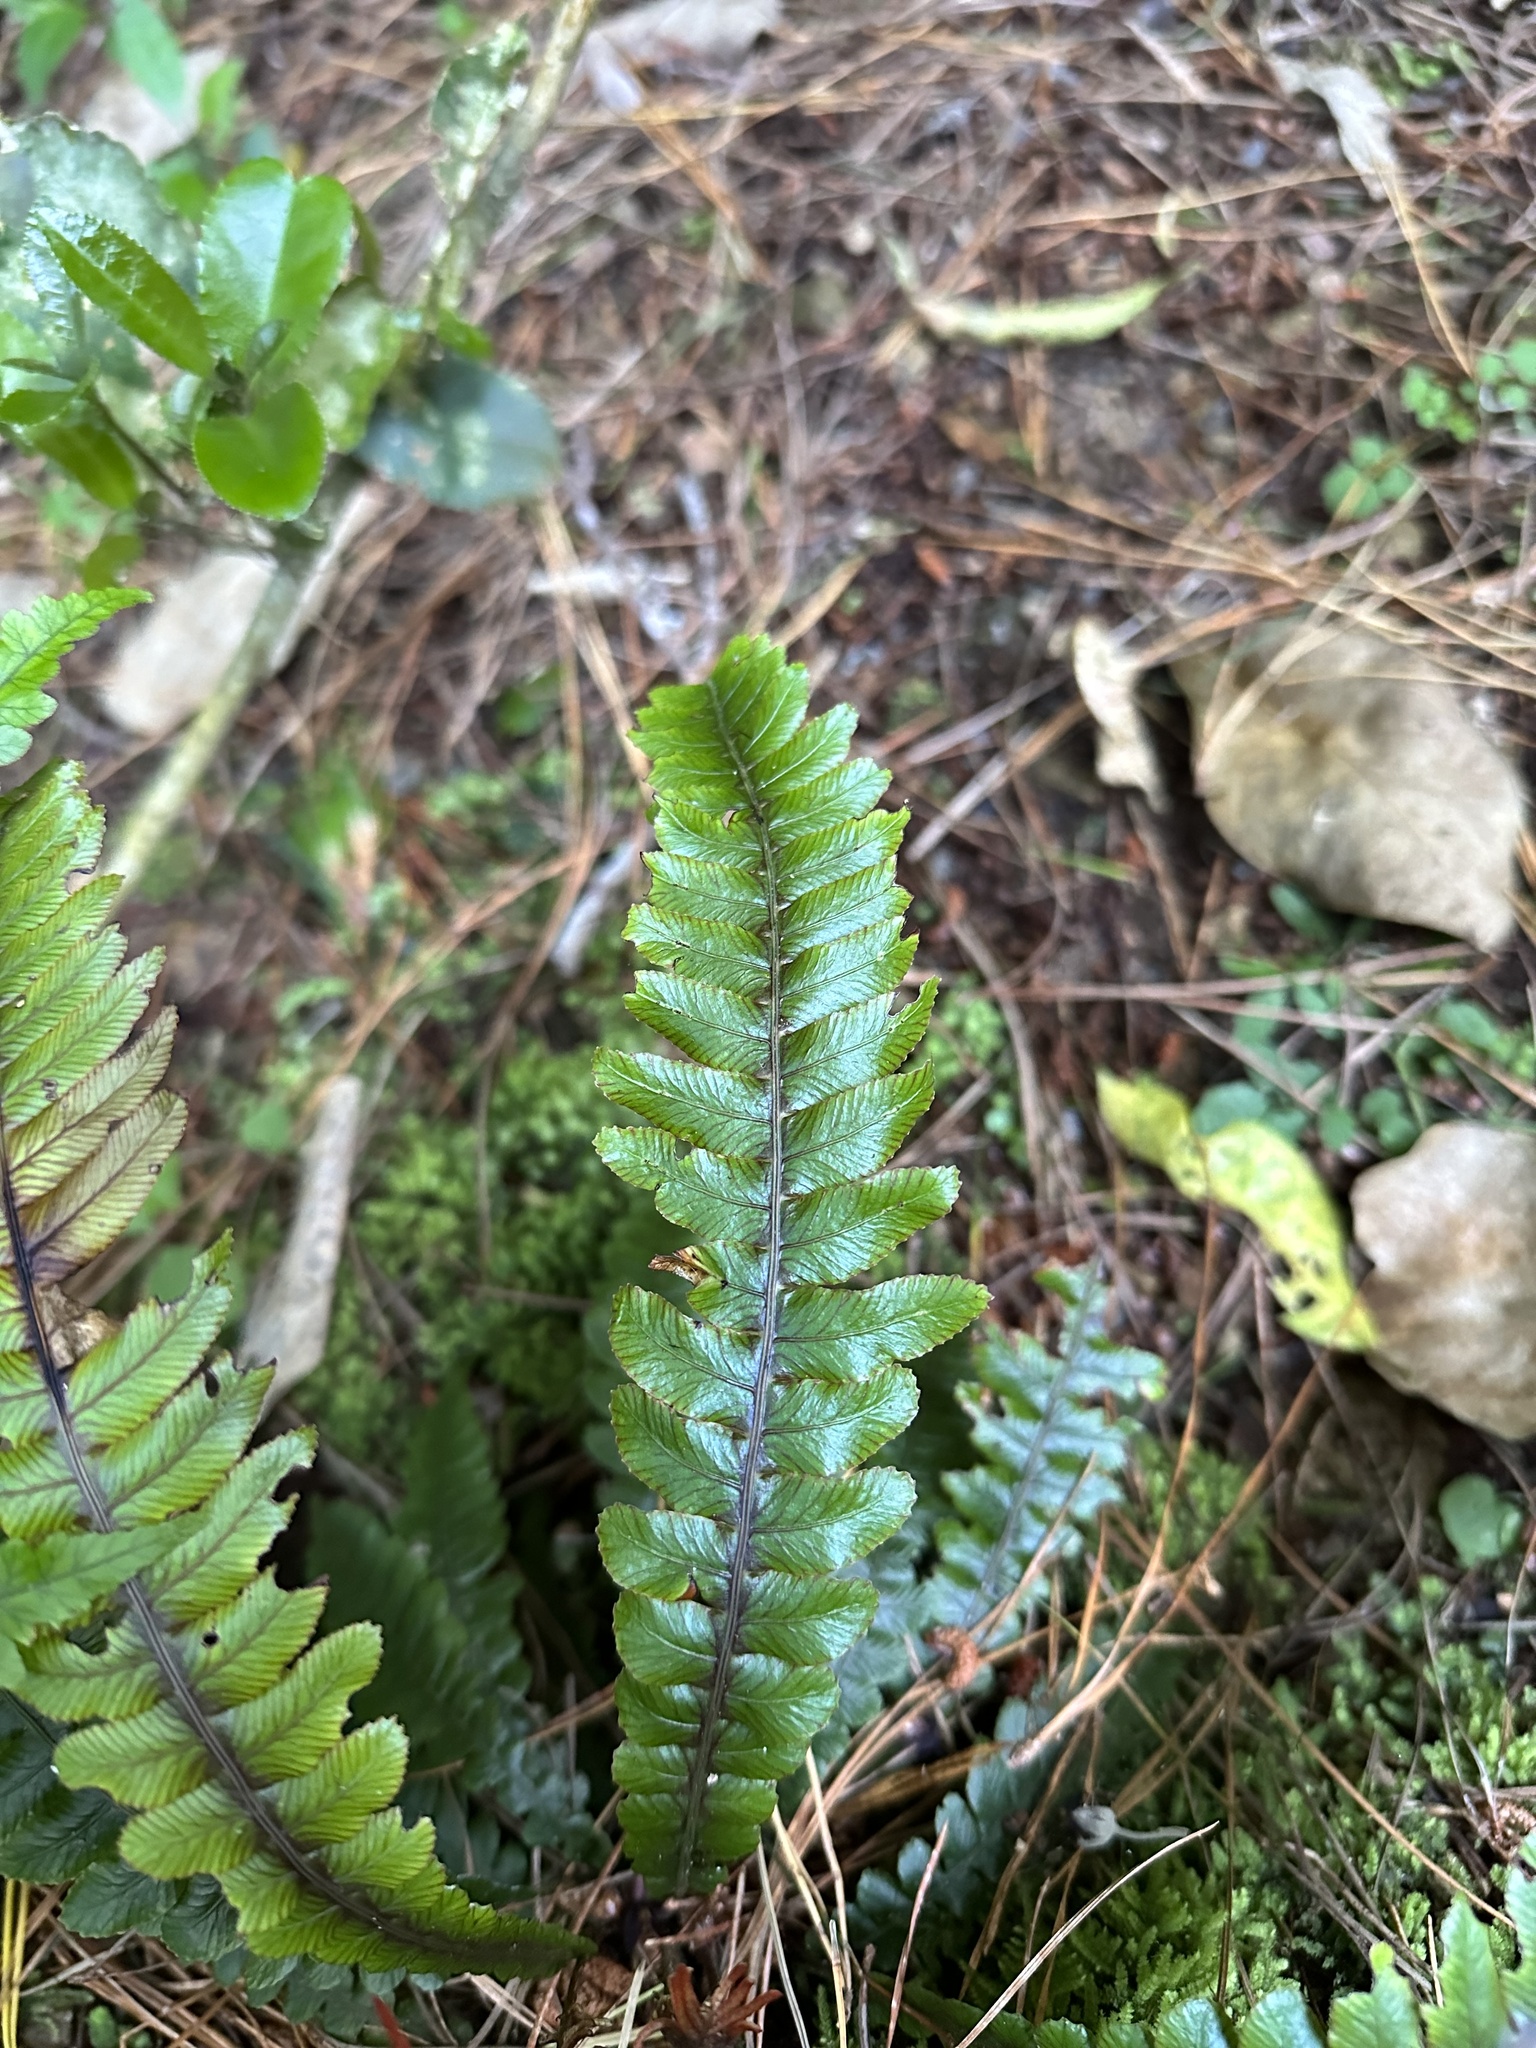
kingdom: Plantae
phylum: Tracheophyta
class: Polypodiopsida
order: Polypodiales
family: Blechnaceae
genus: Austroblechnum
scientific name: Austroblechnum lanceolatum
